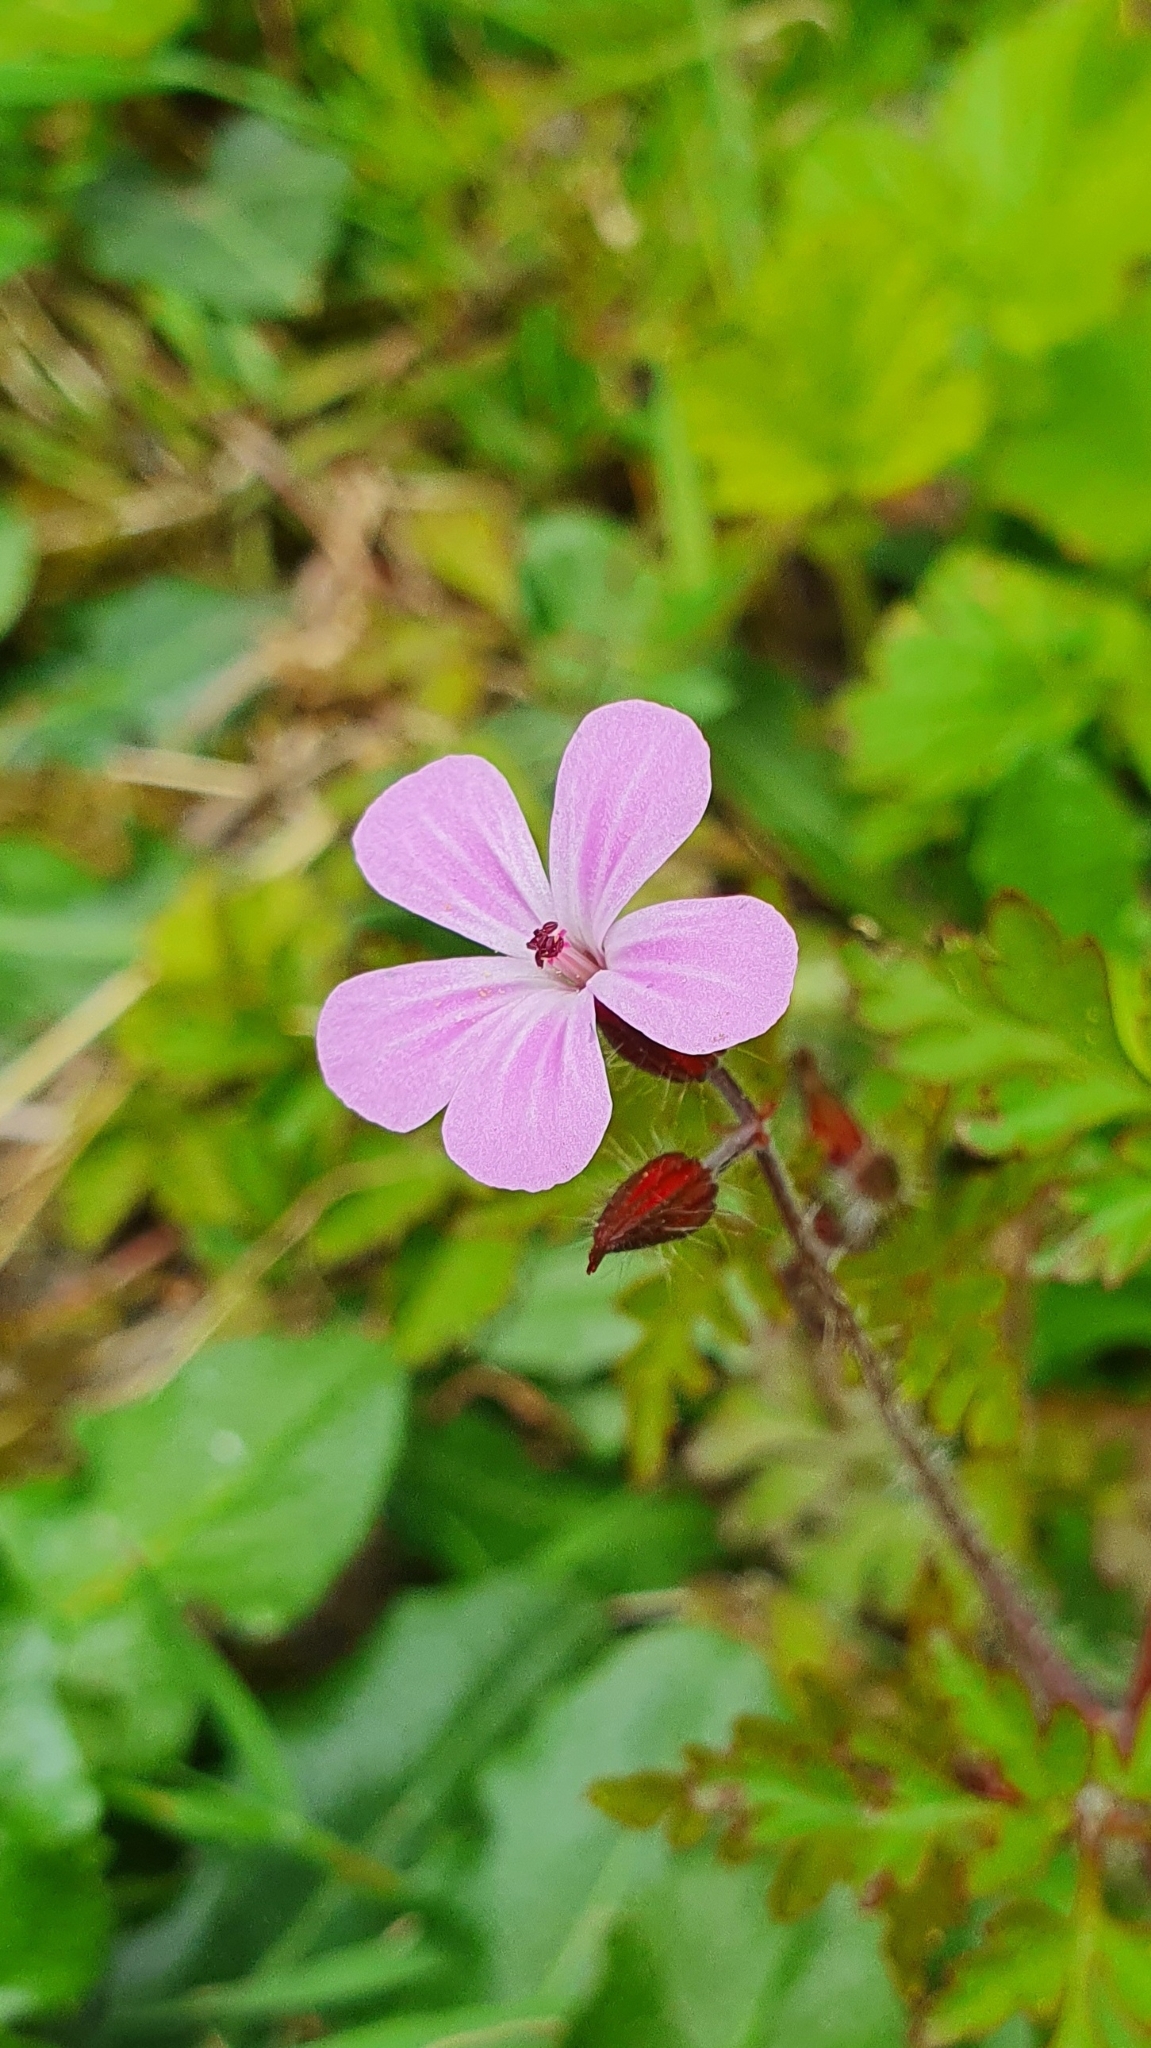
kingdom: Plantae
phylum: Tracheophyta
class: Magnoliopsida
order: Geraniales
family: Geraniaceae
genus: Geranium
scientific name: Geranium robertianum
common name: Herb-robert
